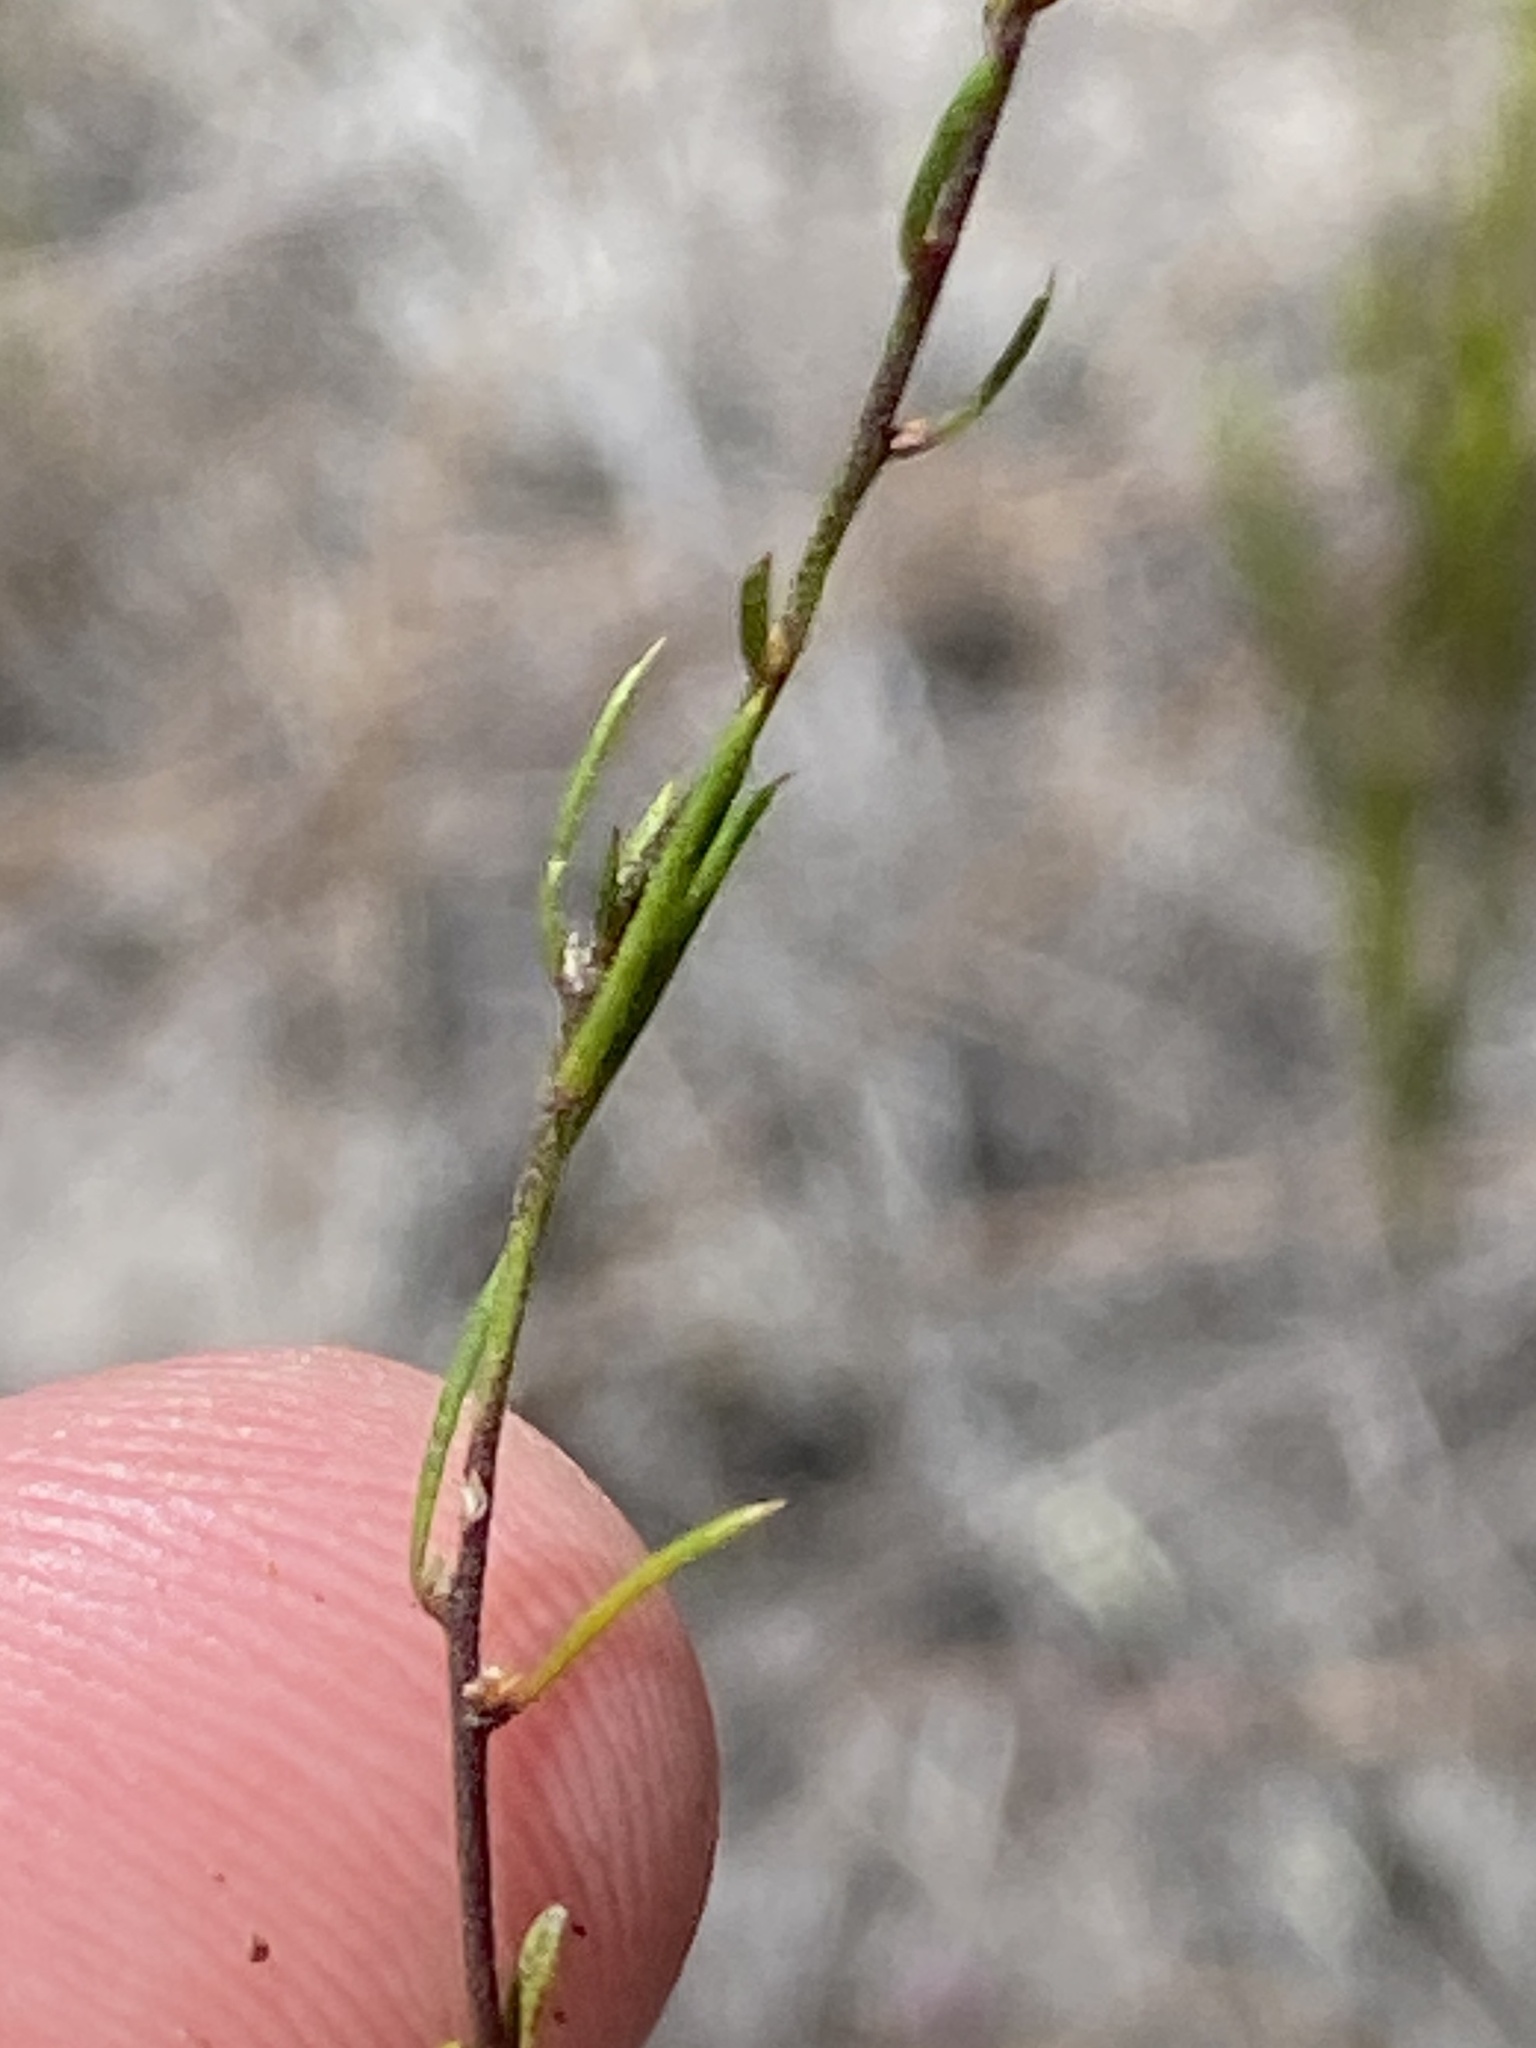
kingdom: Plantae
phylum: Tracheophyta
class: Magnoliopsida
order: Fabales
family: Polygalaceae
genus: Muraltia
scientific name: Muraltia paludosa
